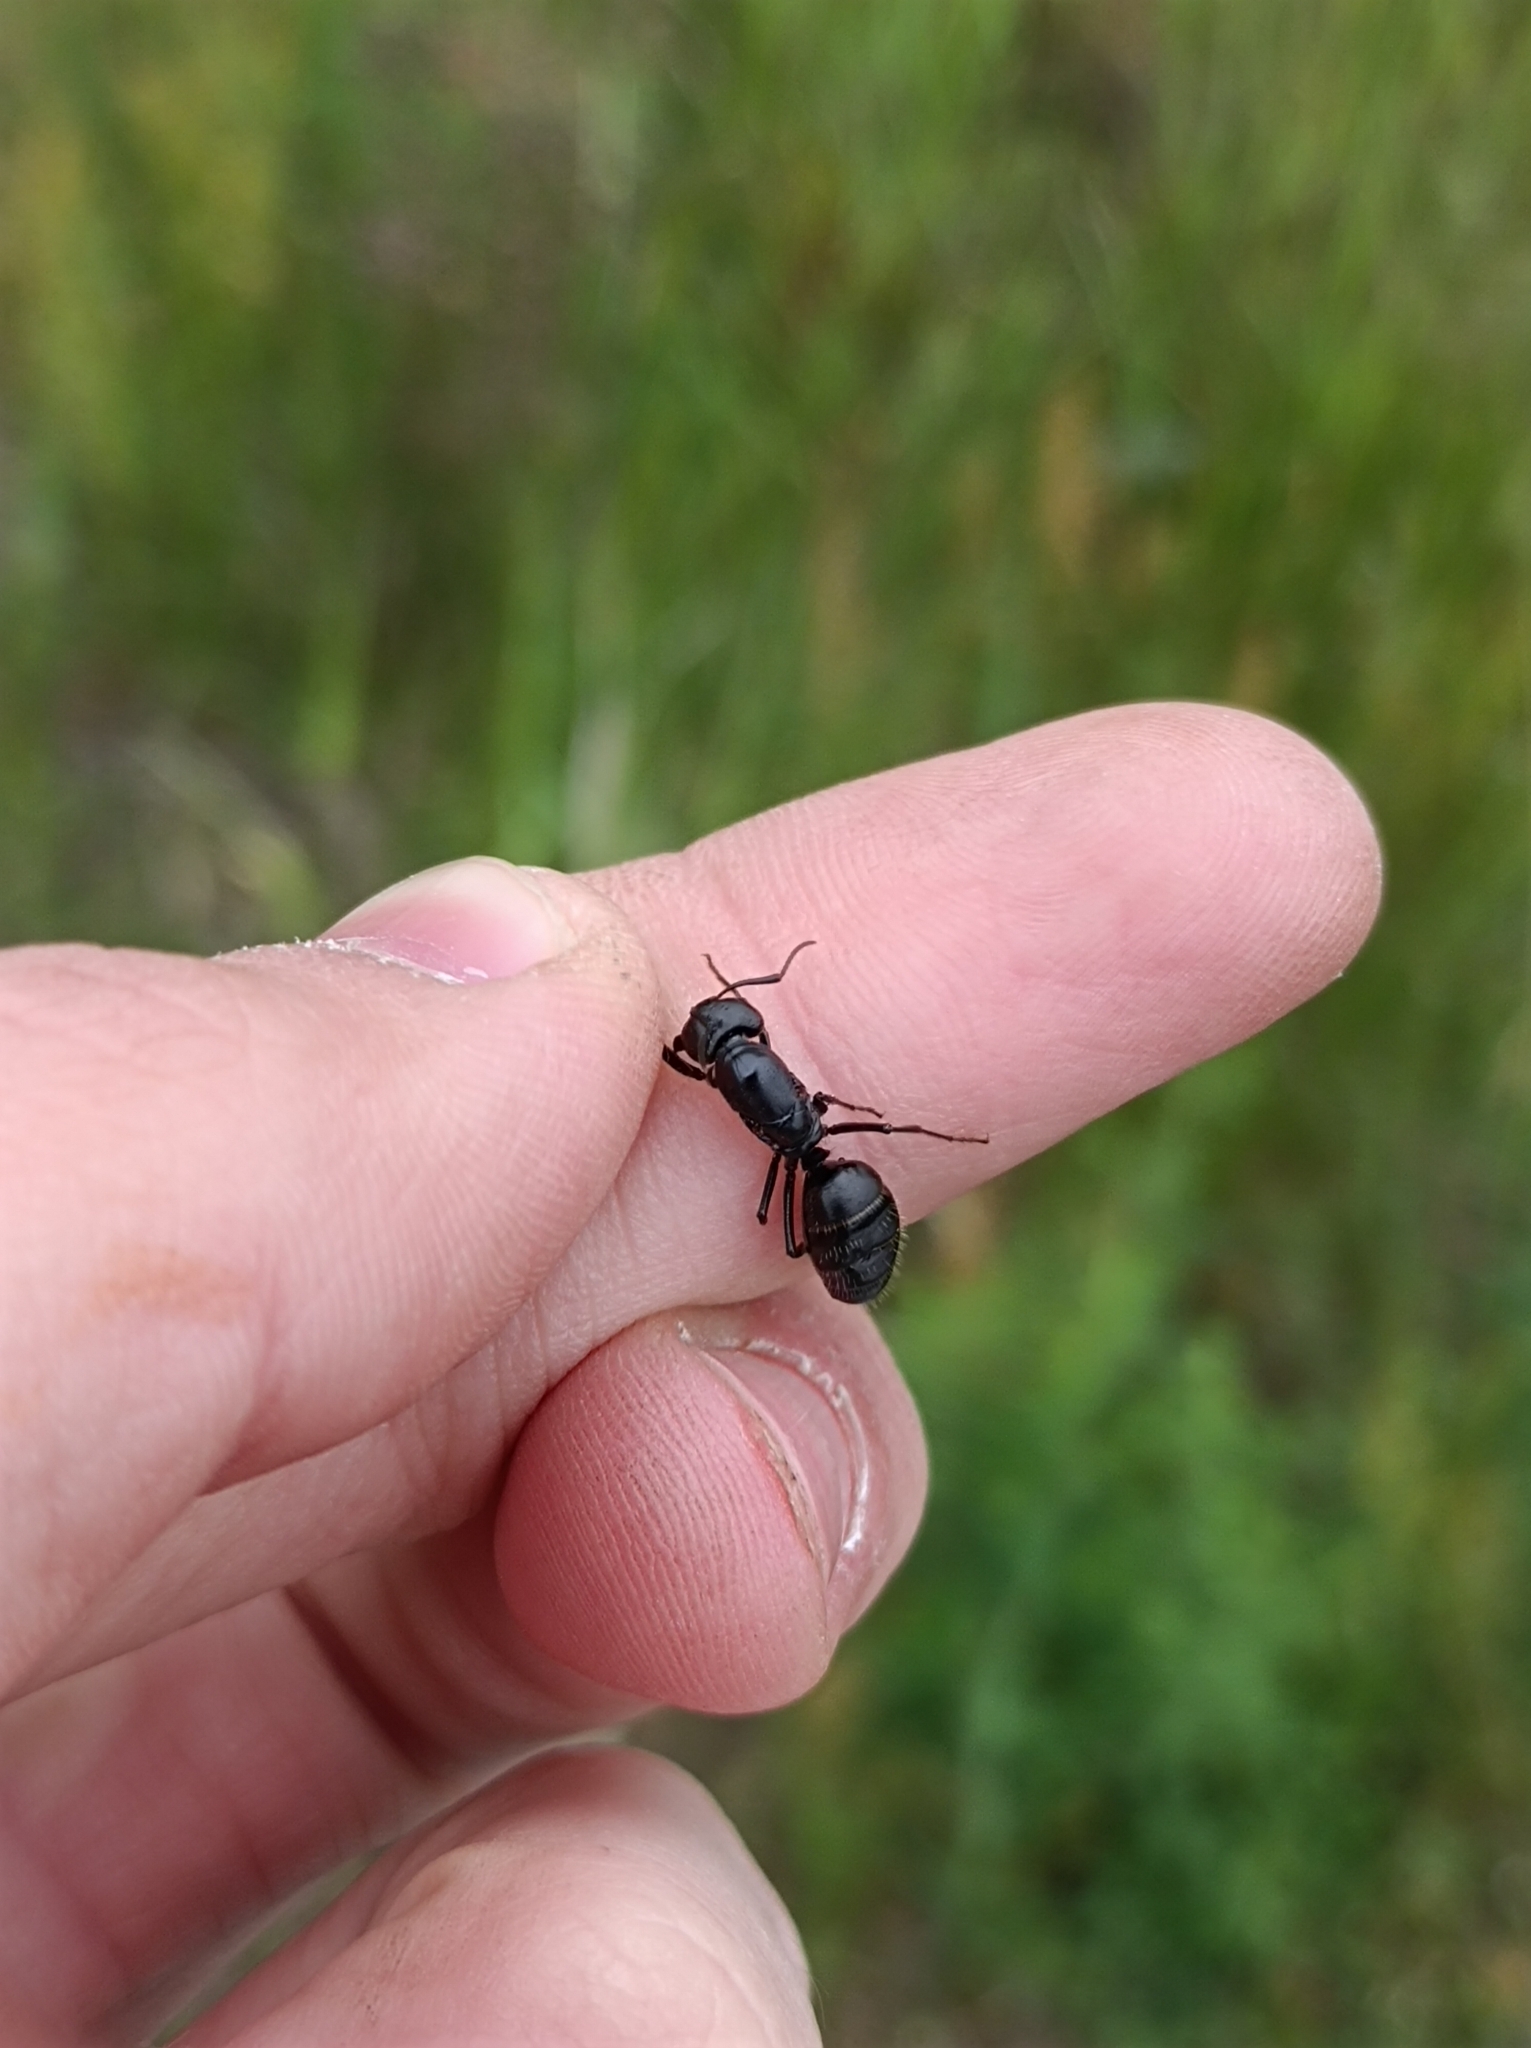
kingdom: Animalia
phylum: Arthropoda
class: Insecta
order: Hymenoptera
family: Formicidae
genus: Camponotus
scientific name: Camponotus vagus
